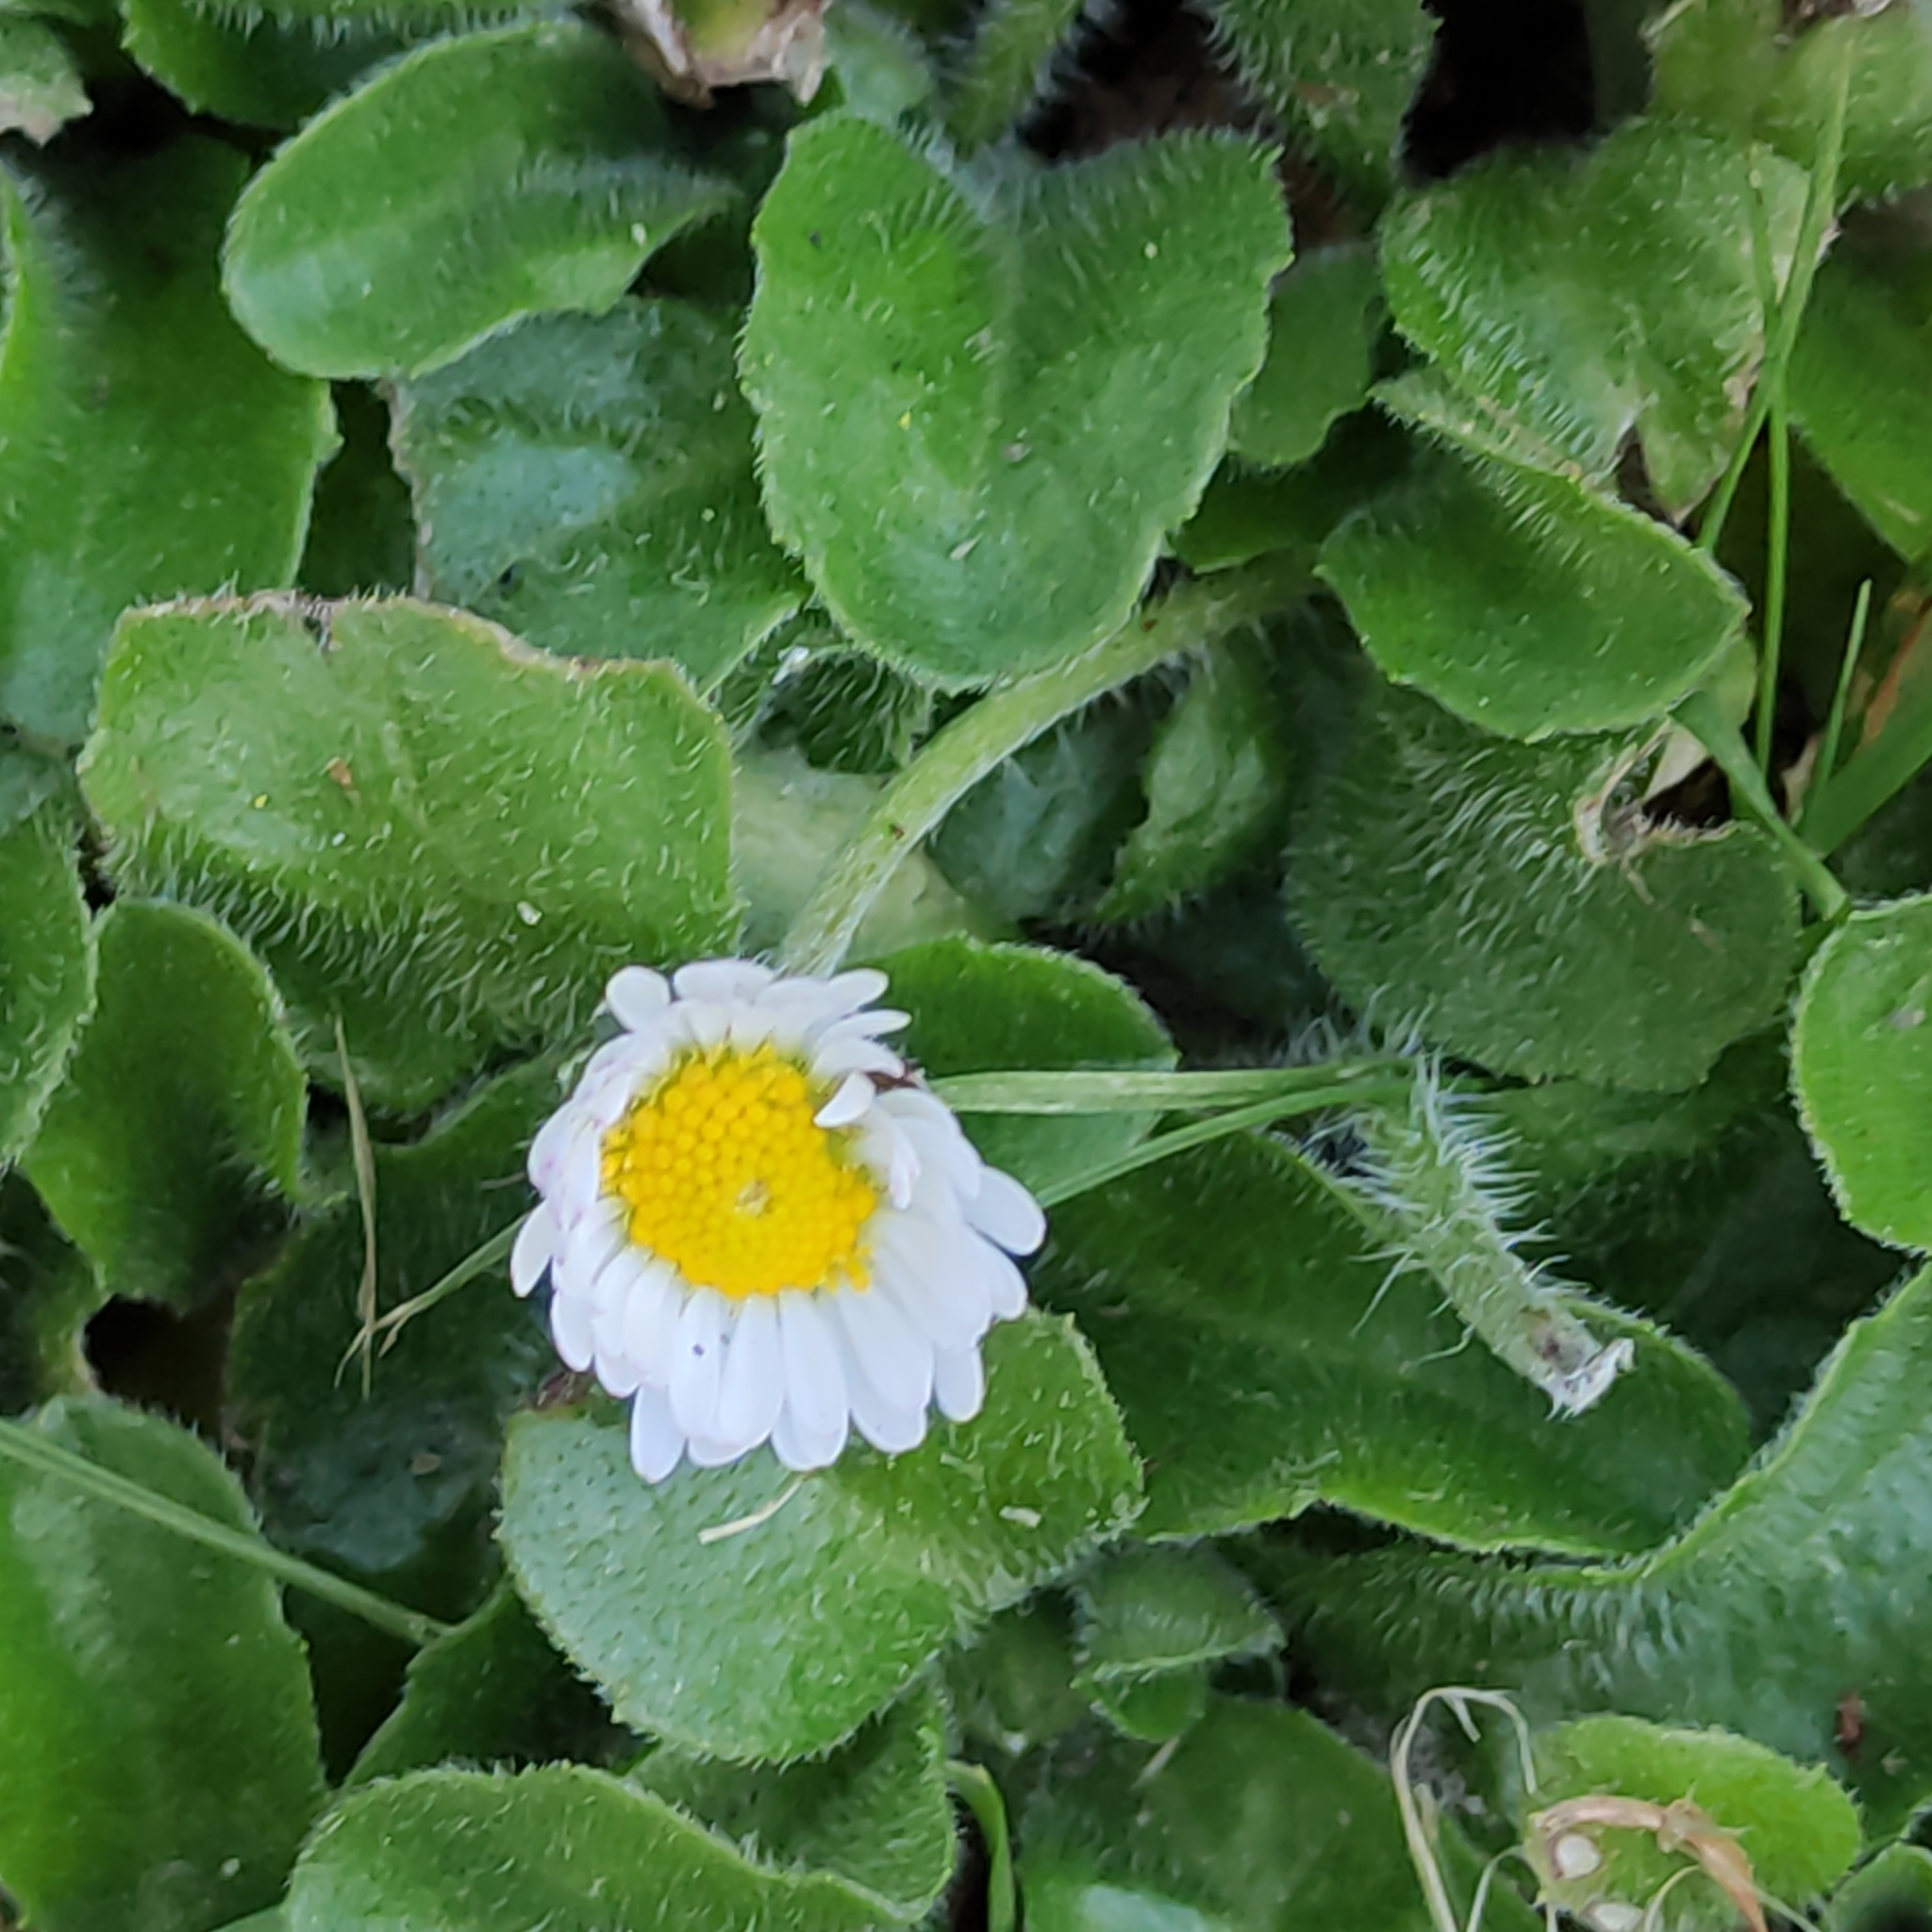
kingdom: Plantae
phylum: Tracheophyta
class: Magnoliopsida
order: Asterales
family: Asteraceae
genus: Bellis
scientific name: Bellis perennis
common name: Lawndaisy
